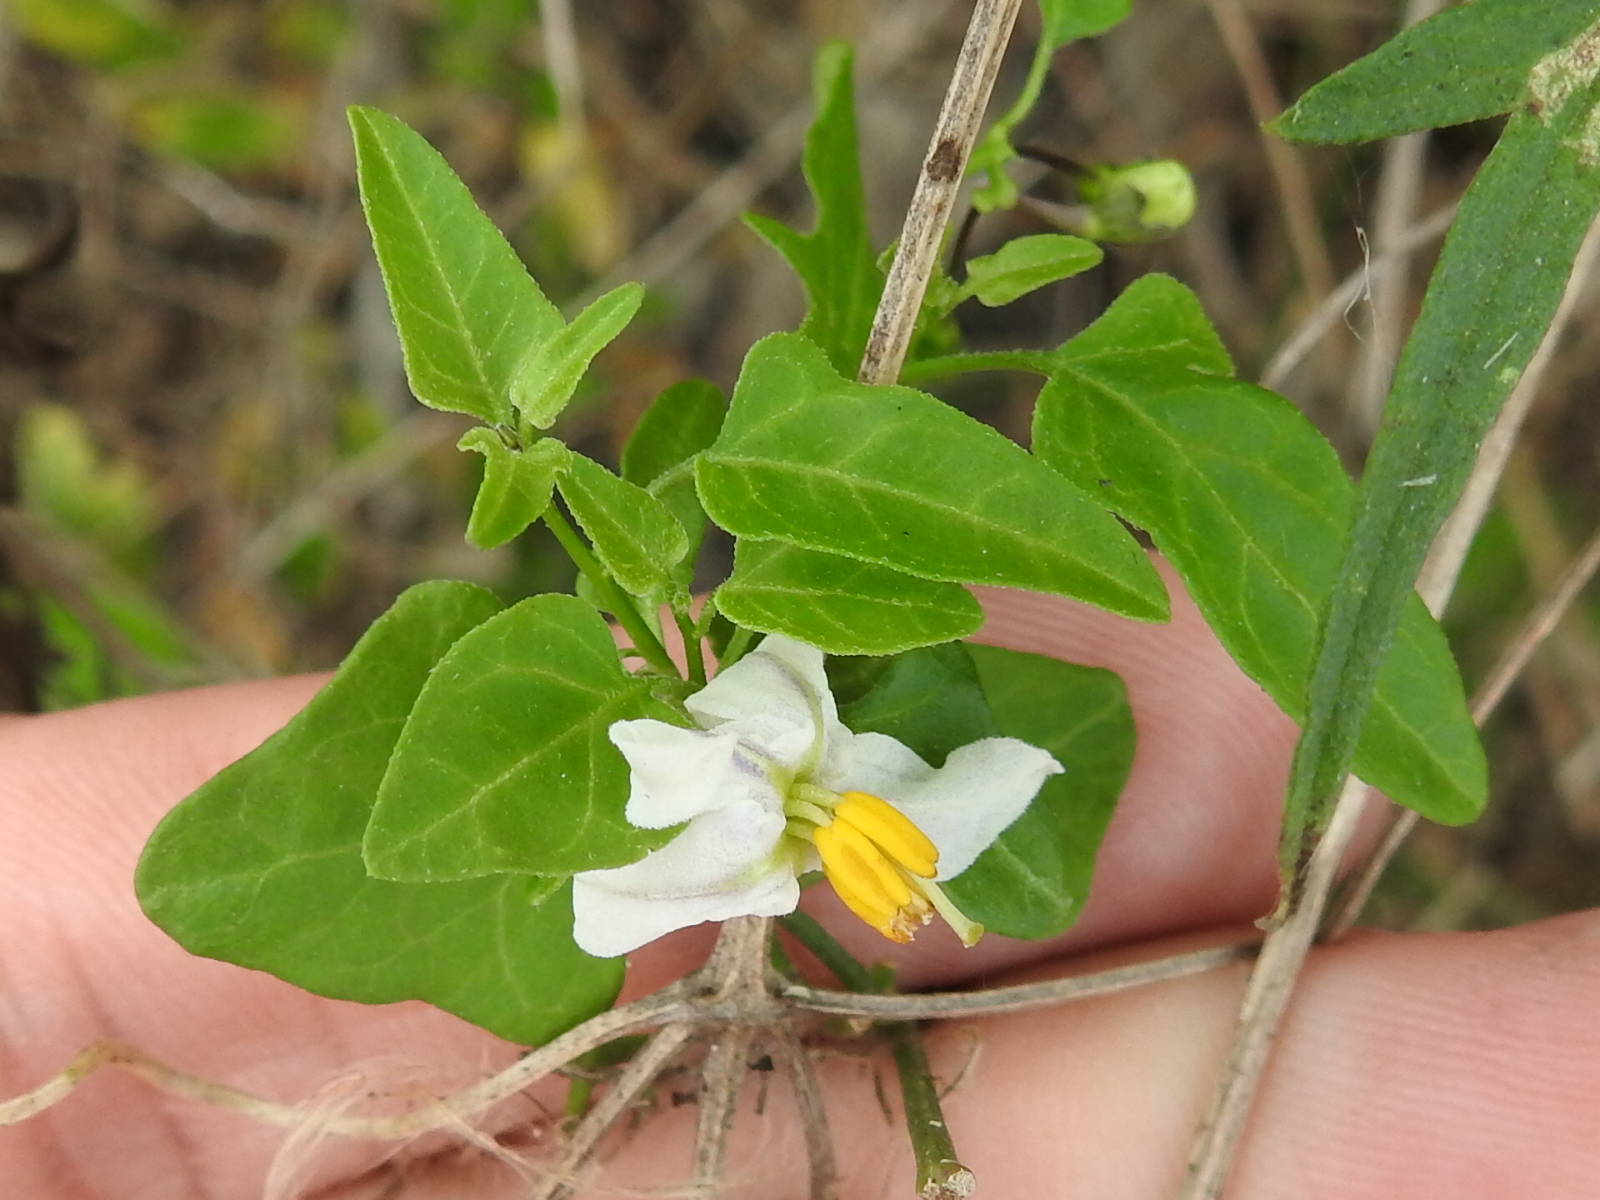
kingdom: Plantae
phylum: Tracheophyta
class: Magnoliopsida
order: Solanales
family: Solanaceae
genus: Solanum
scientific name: Solanum triquetrum
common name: Texas nightshade
